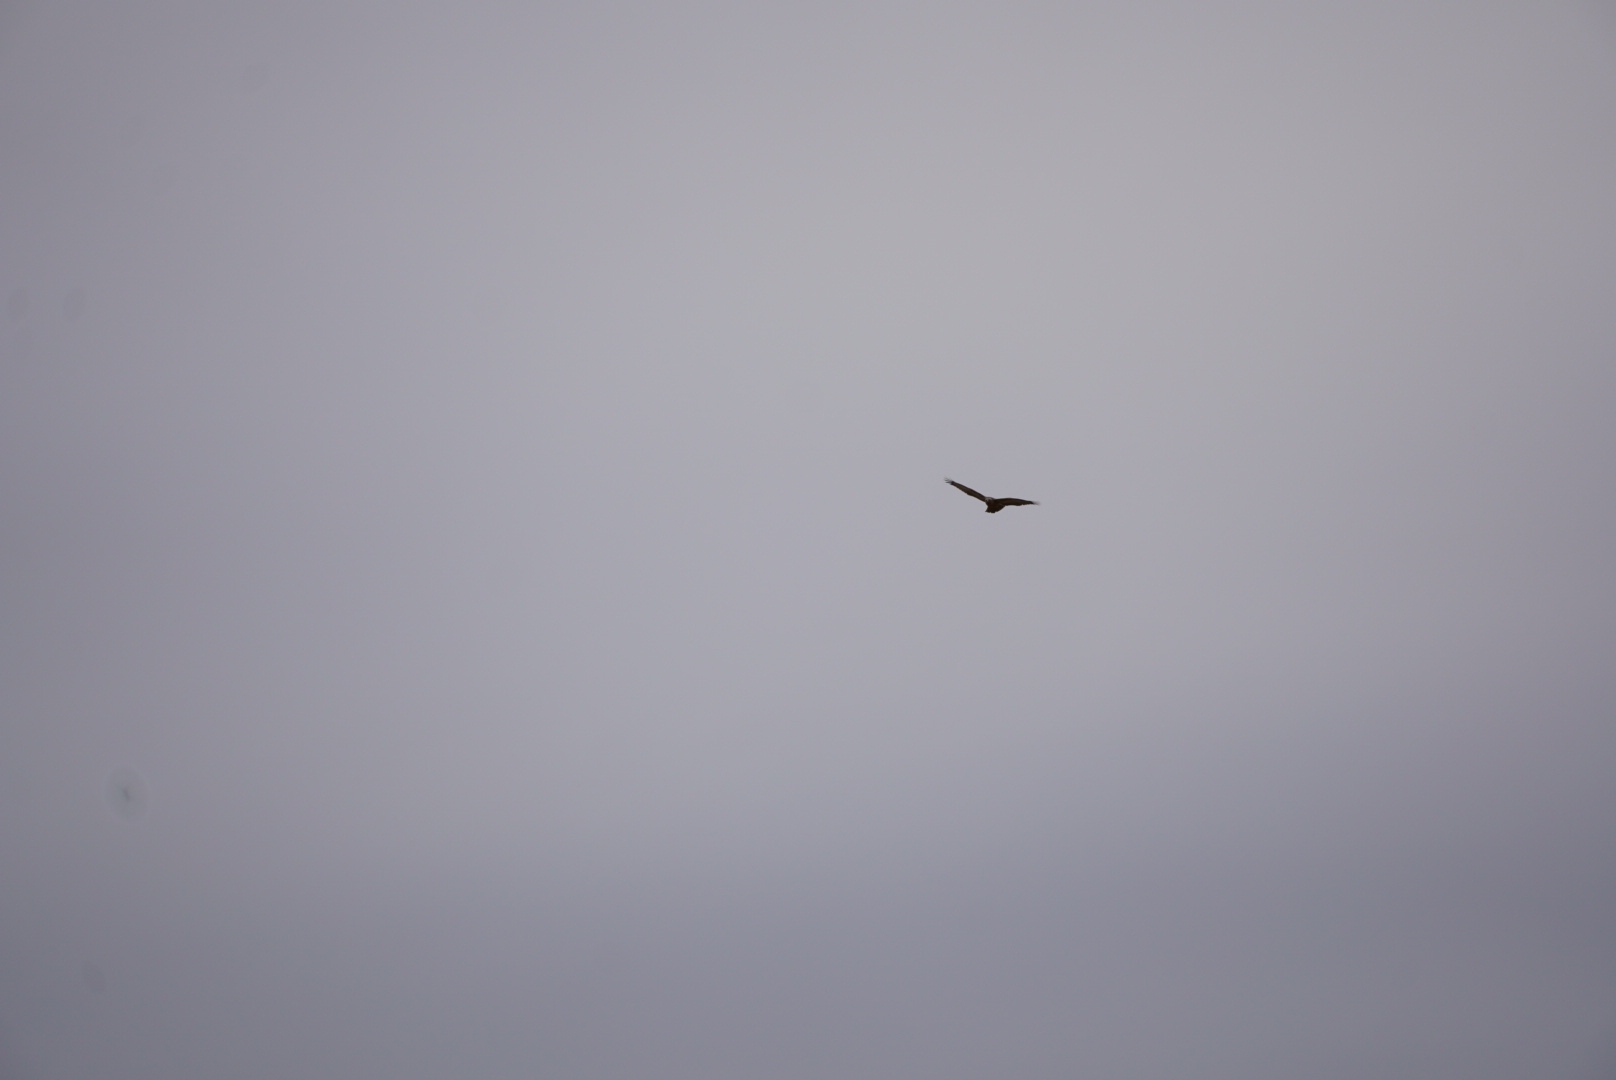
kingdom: Animalia
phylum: Chordata
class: Aves
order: Accipitriformes
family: Accipitridae
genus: Buteo
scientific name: Buteo rufofuscus
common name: Jackal buzzard
